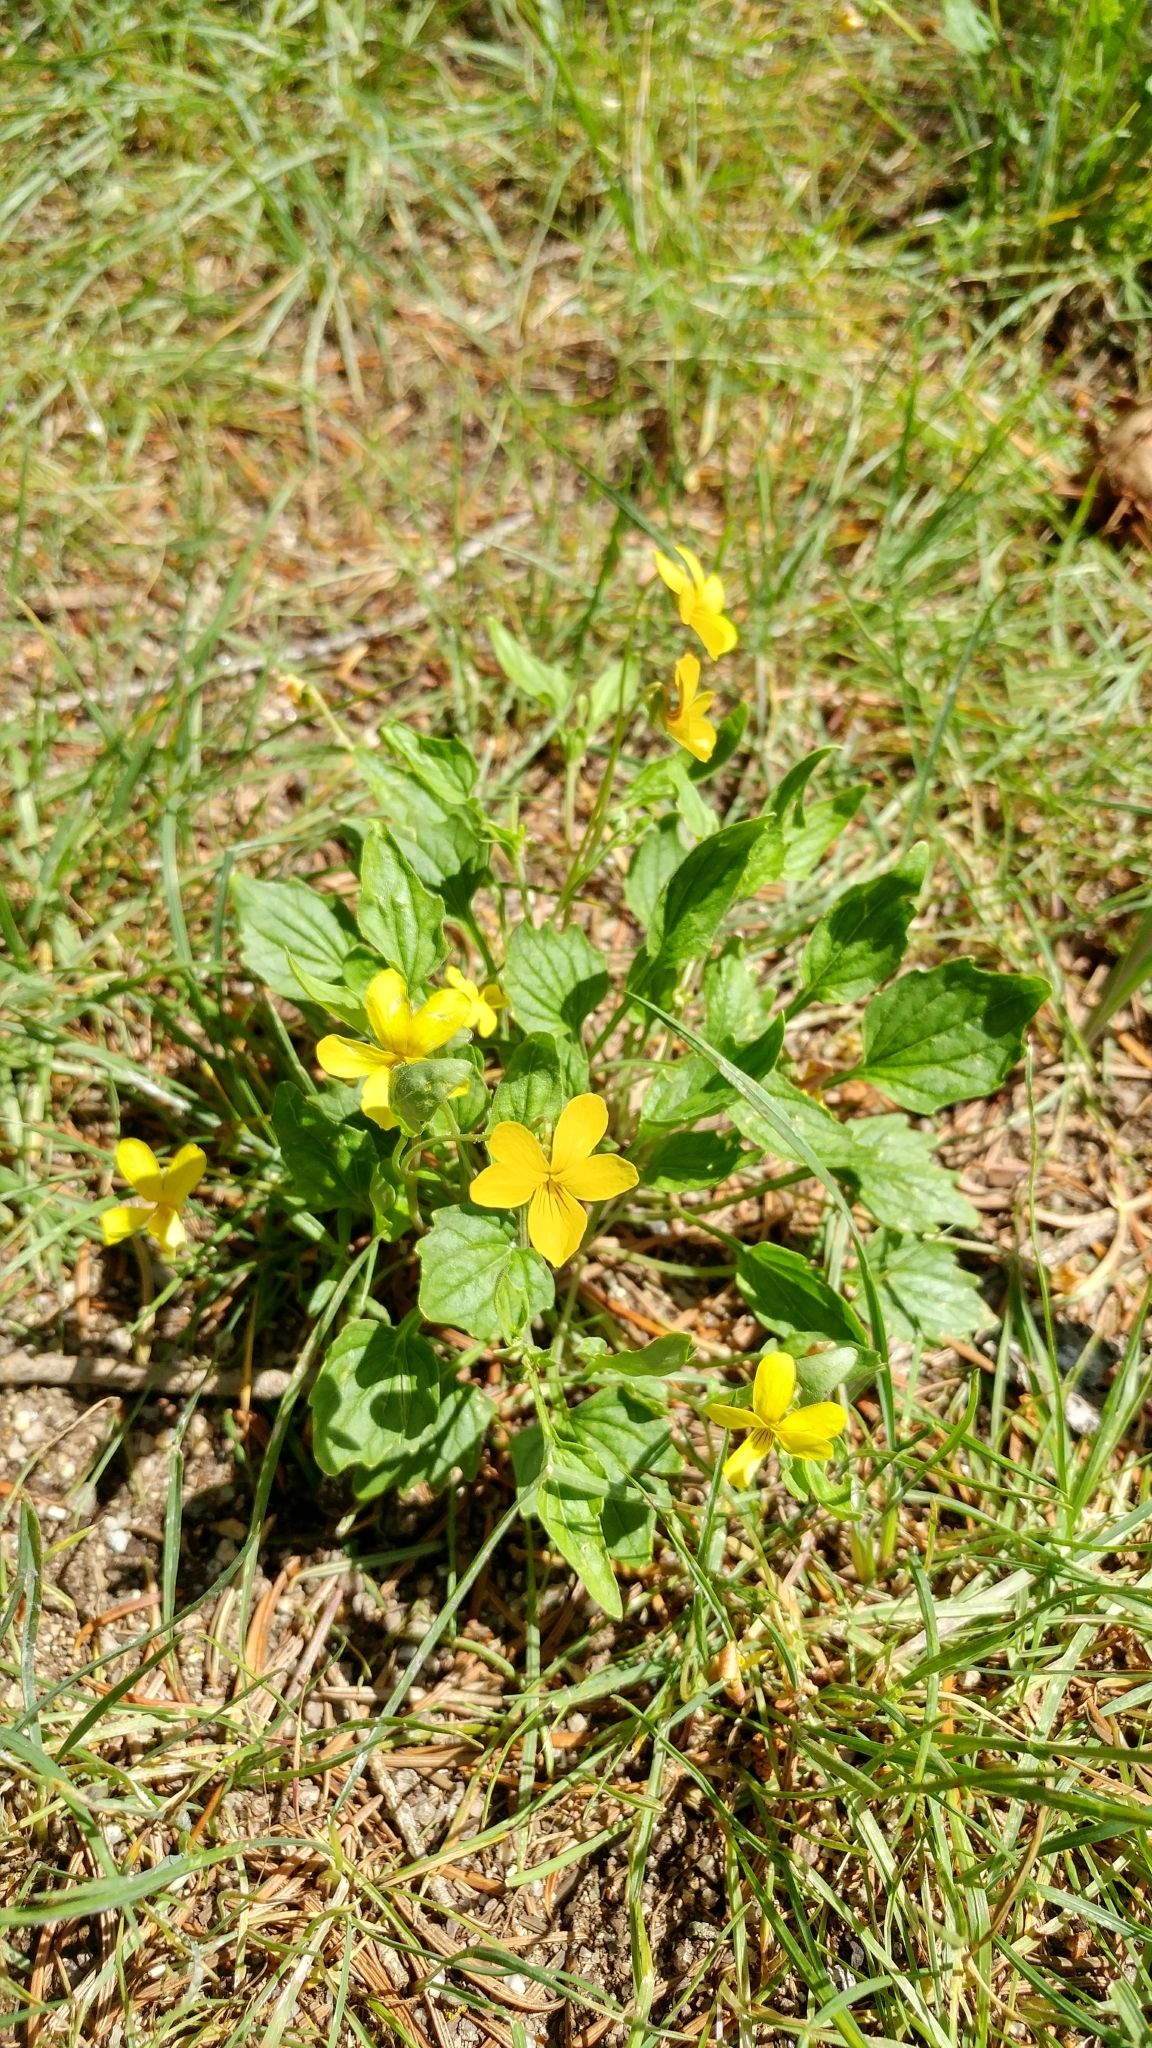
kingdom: Plantae
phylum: Tracheophyta
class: Magnoliopsida
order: Malpighiales
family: Violaceae
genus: Viola
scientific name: Viola purpurea
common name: Pine violet
